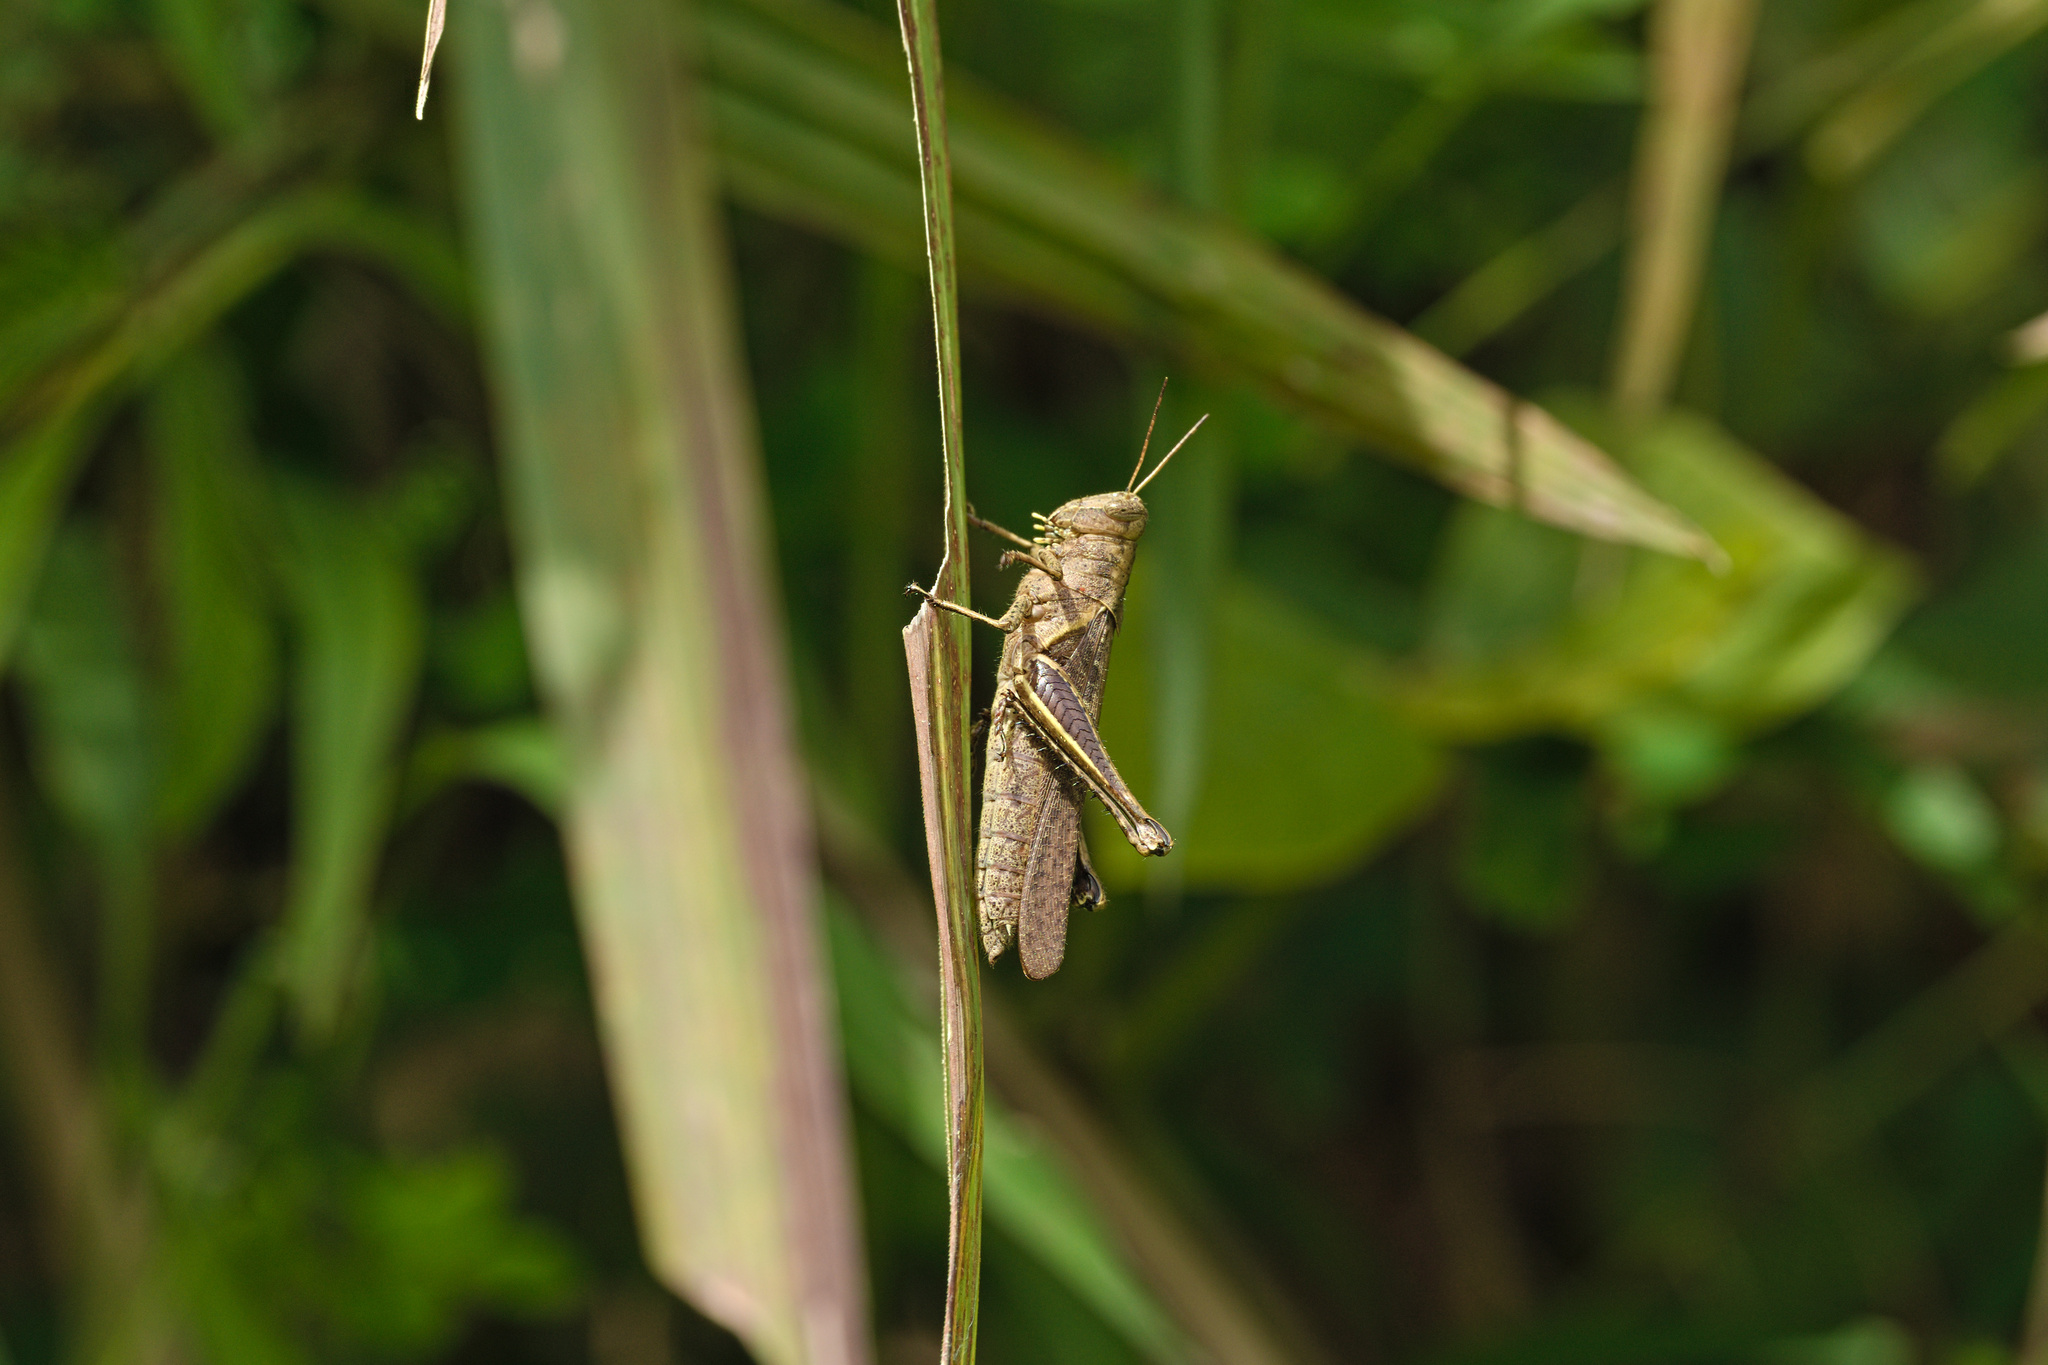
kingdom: Animalia
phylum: Arthropoda
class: Insecta
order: Orthoptera
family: Acrididae
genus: Abracris
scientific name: Abracris flavolineata
